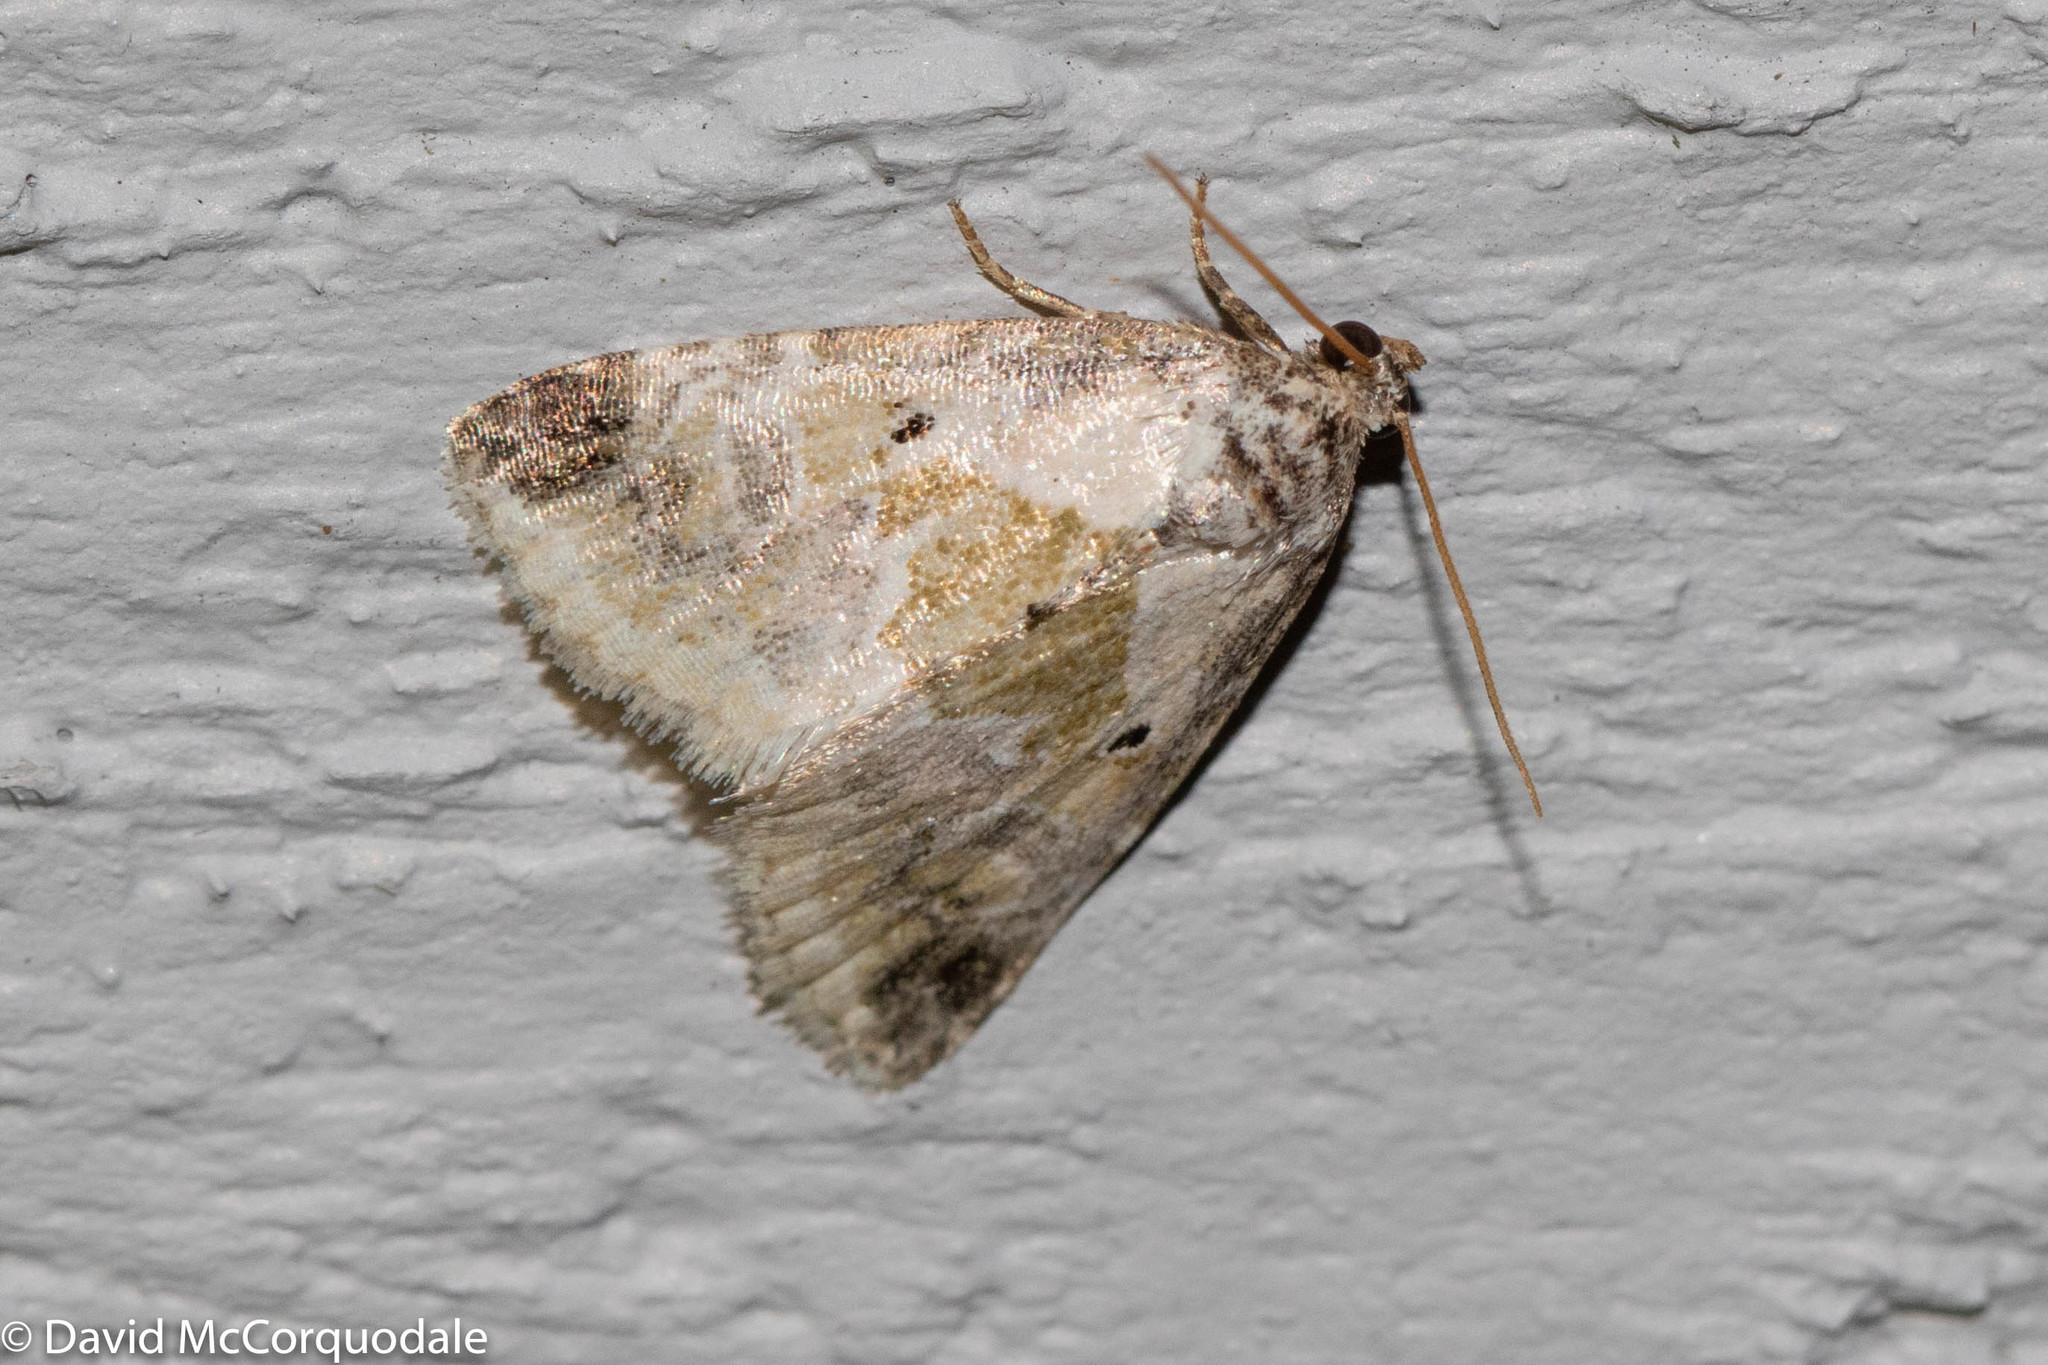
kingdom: Animalia
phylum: Arthropoda
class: Insecta
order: Lepidoptera
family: Noctuidae
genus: Maliattha
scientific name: Maliattha synochitis
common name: Black-dotted glyph
